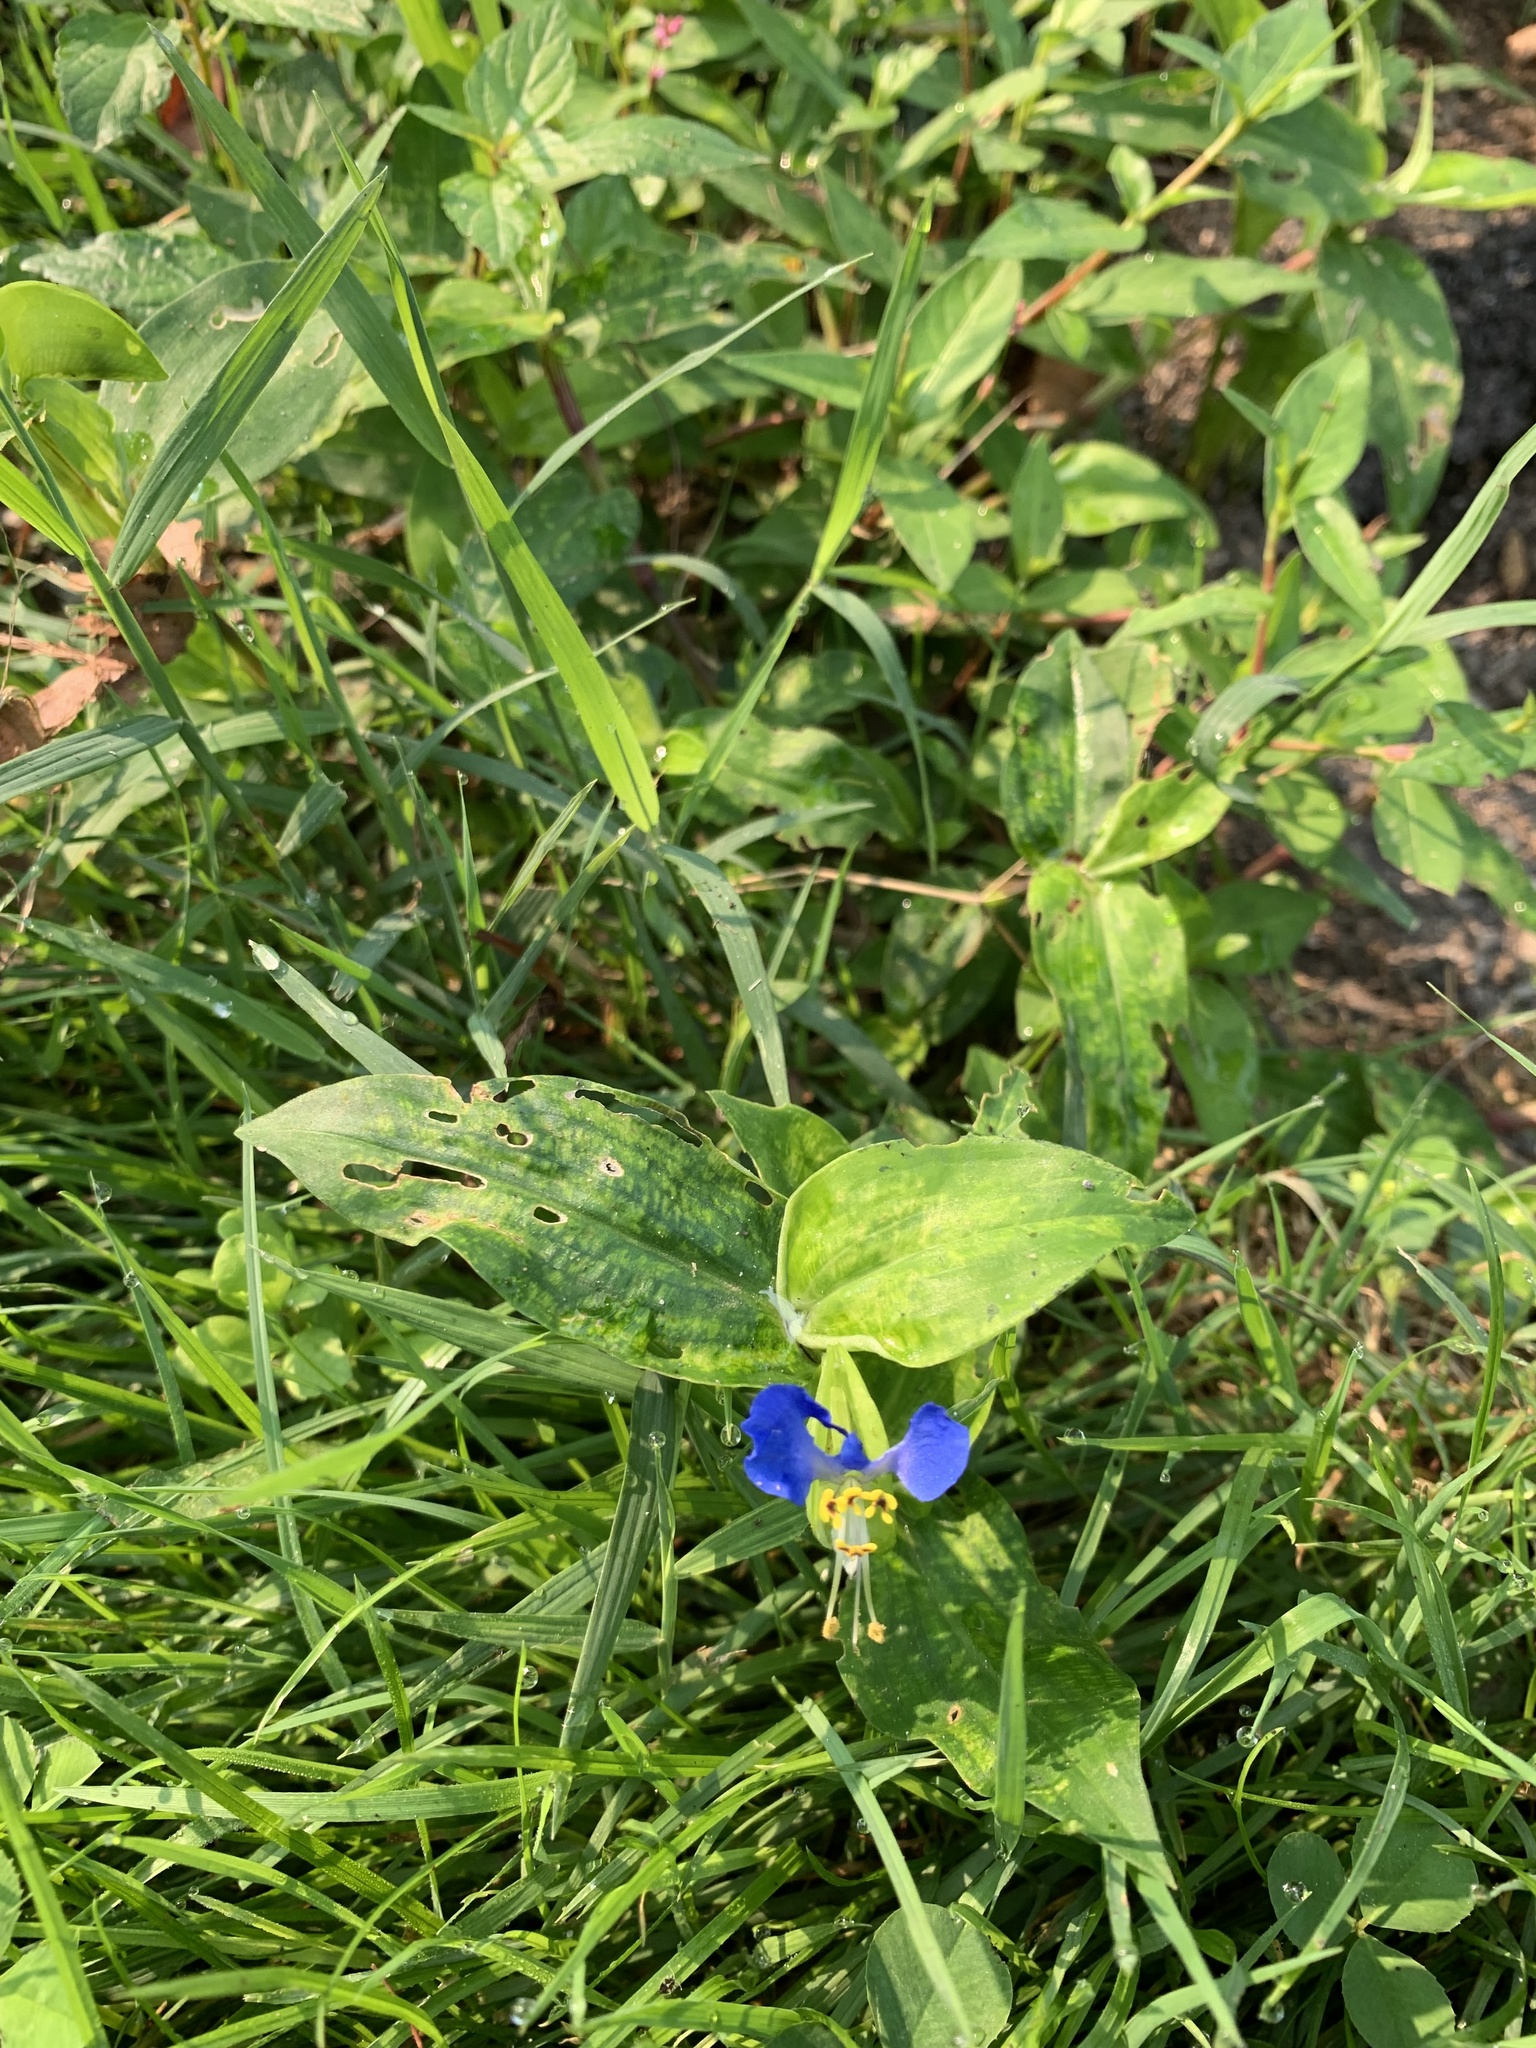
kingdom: Plantae
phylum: Tracheophyta
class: Liliopsida
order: Commelinales
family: Commelinaceae
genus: Commelina
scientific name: Commelina communis
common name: Asiatic dayflower
